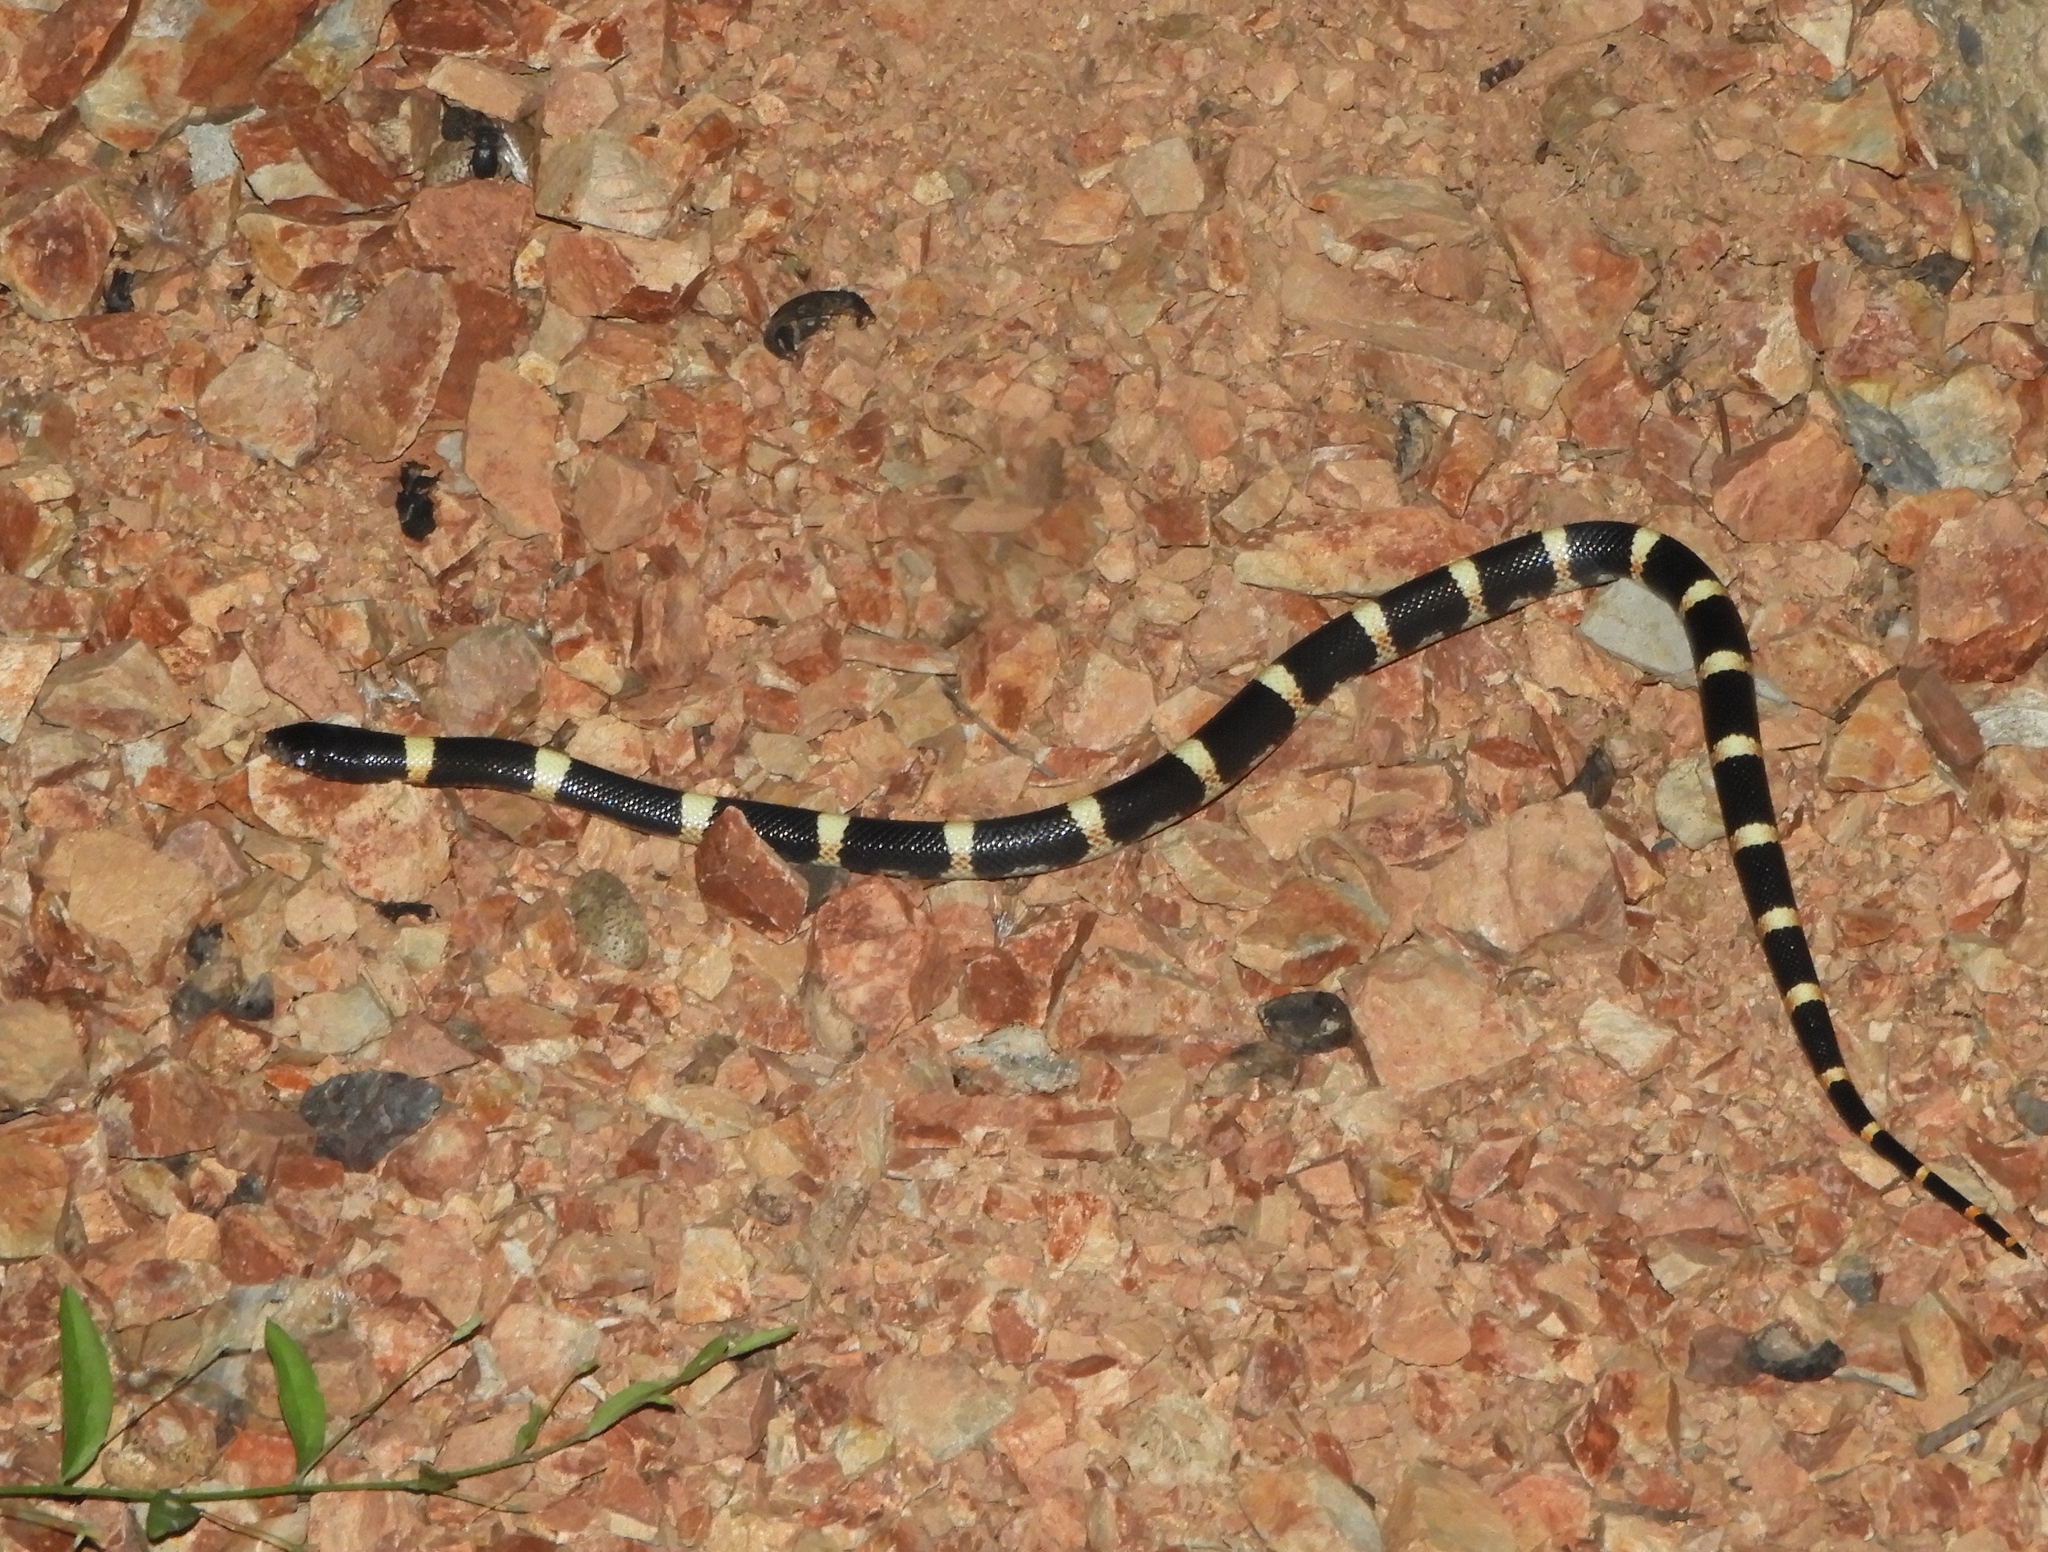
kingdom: Animalia
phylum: Chordata
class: Squamata
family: Colubridae
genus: Rhinocheilus
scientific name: Rhinocheilus antonii
